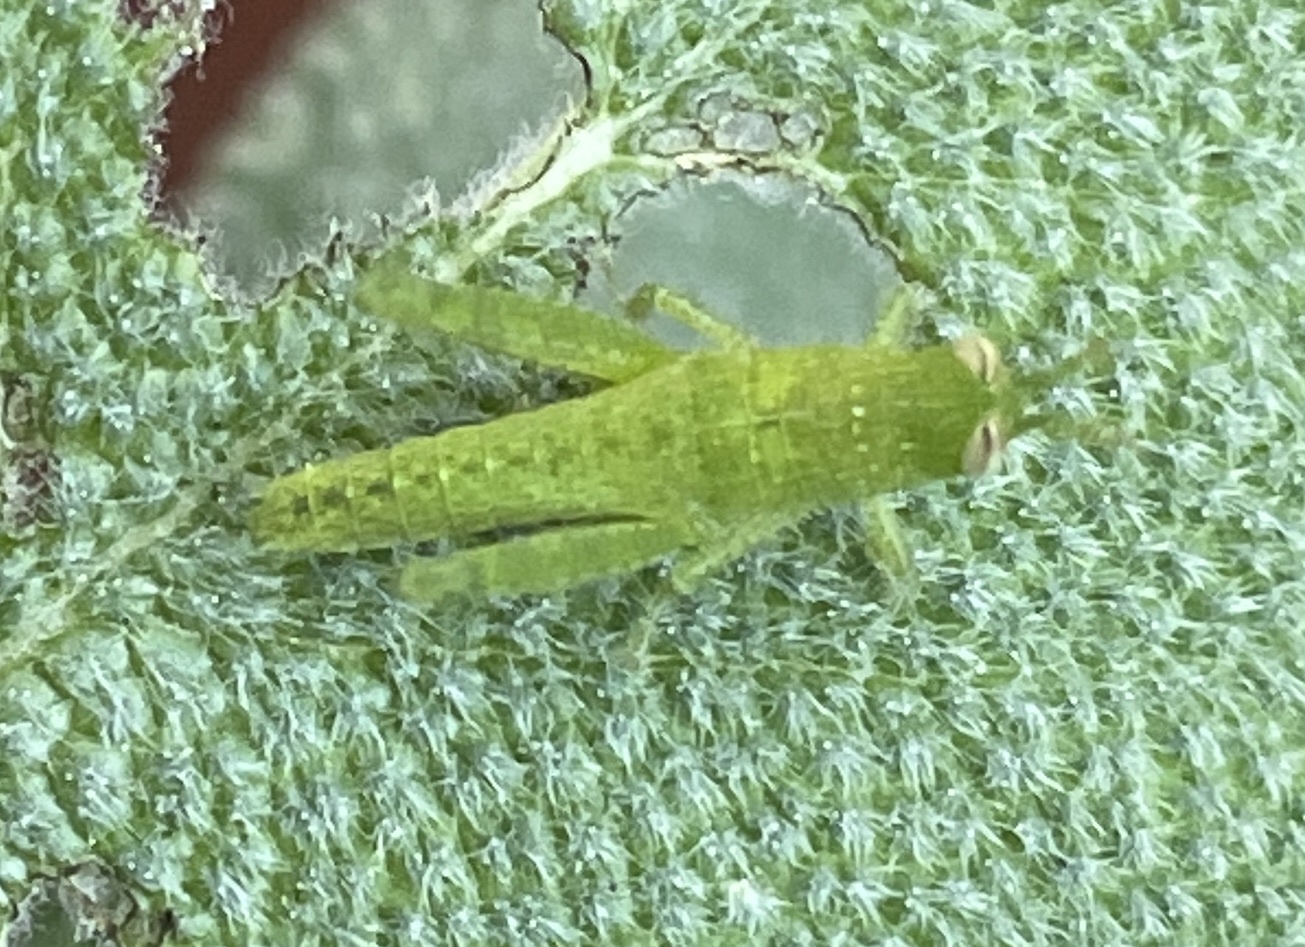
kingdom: Animalia
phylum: Arthropoda
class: Insecta
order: Orthoptera
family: Acrididae
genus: Schistocerca
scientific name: Schistocerca nitens
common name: Vagrant grasshopper
